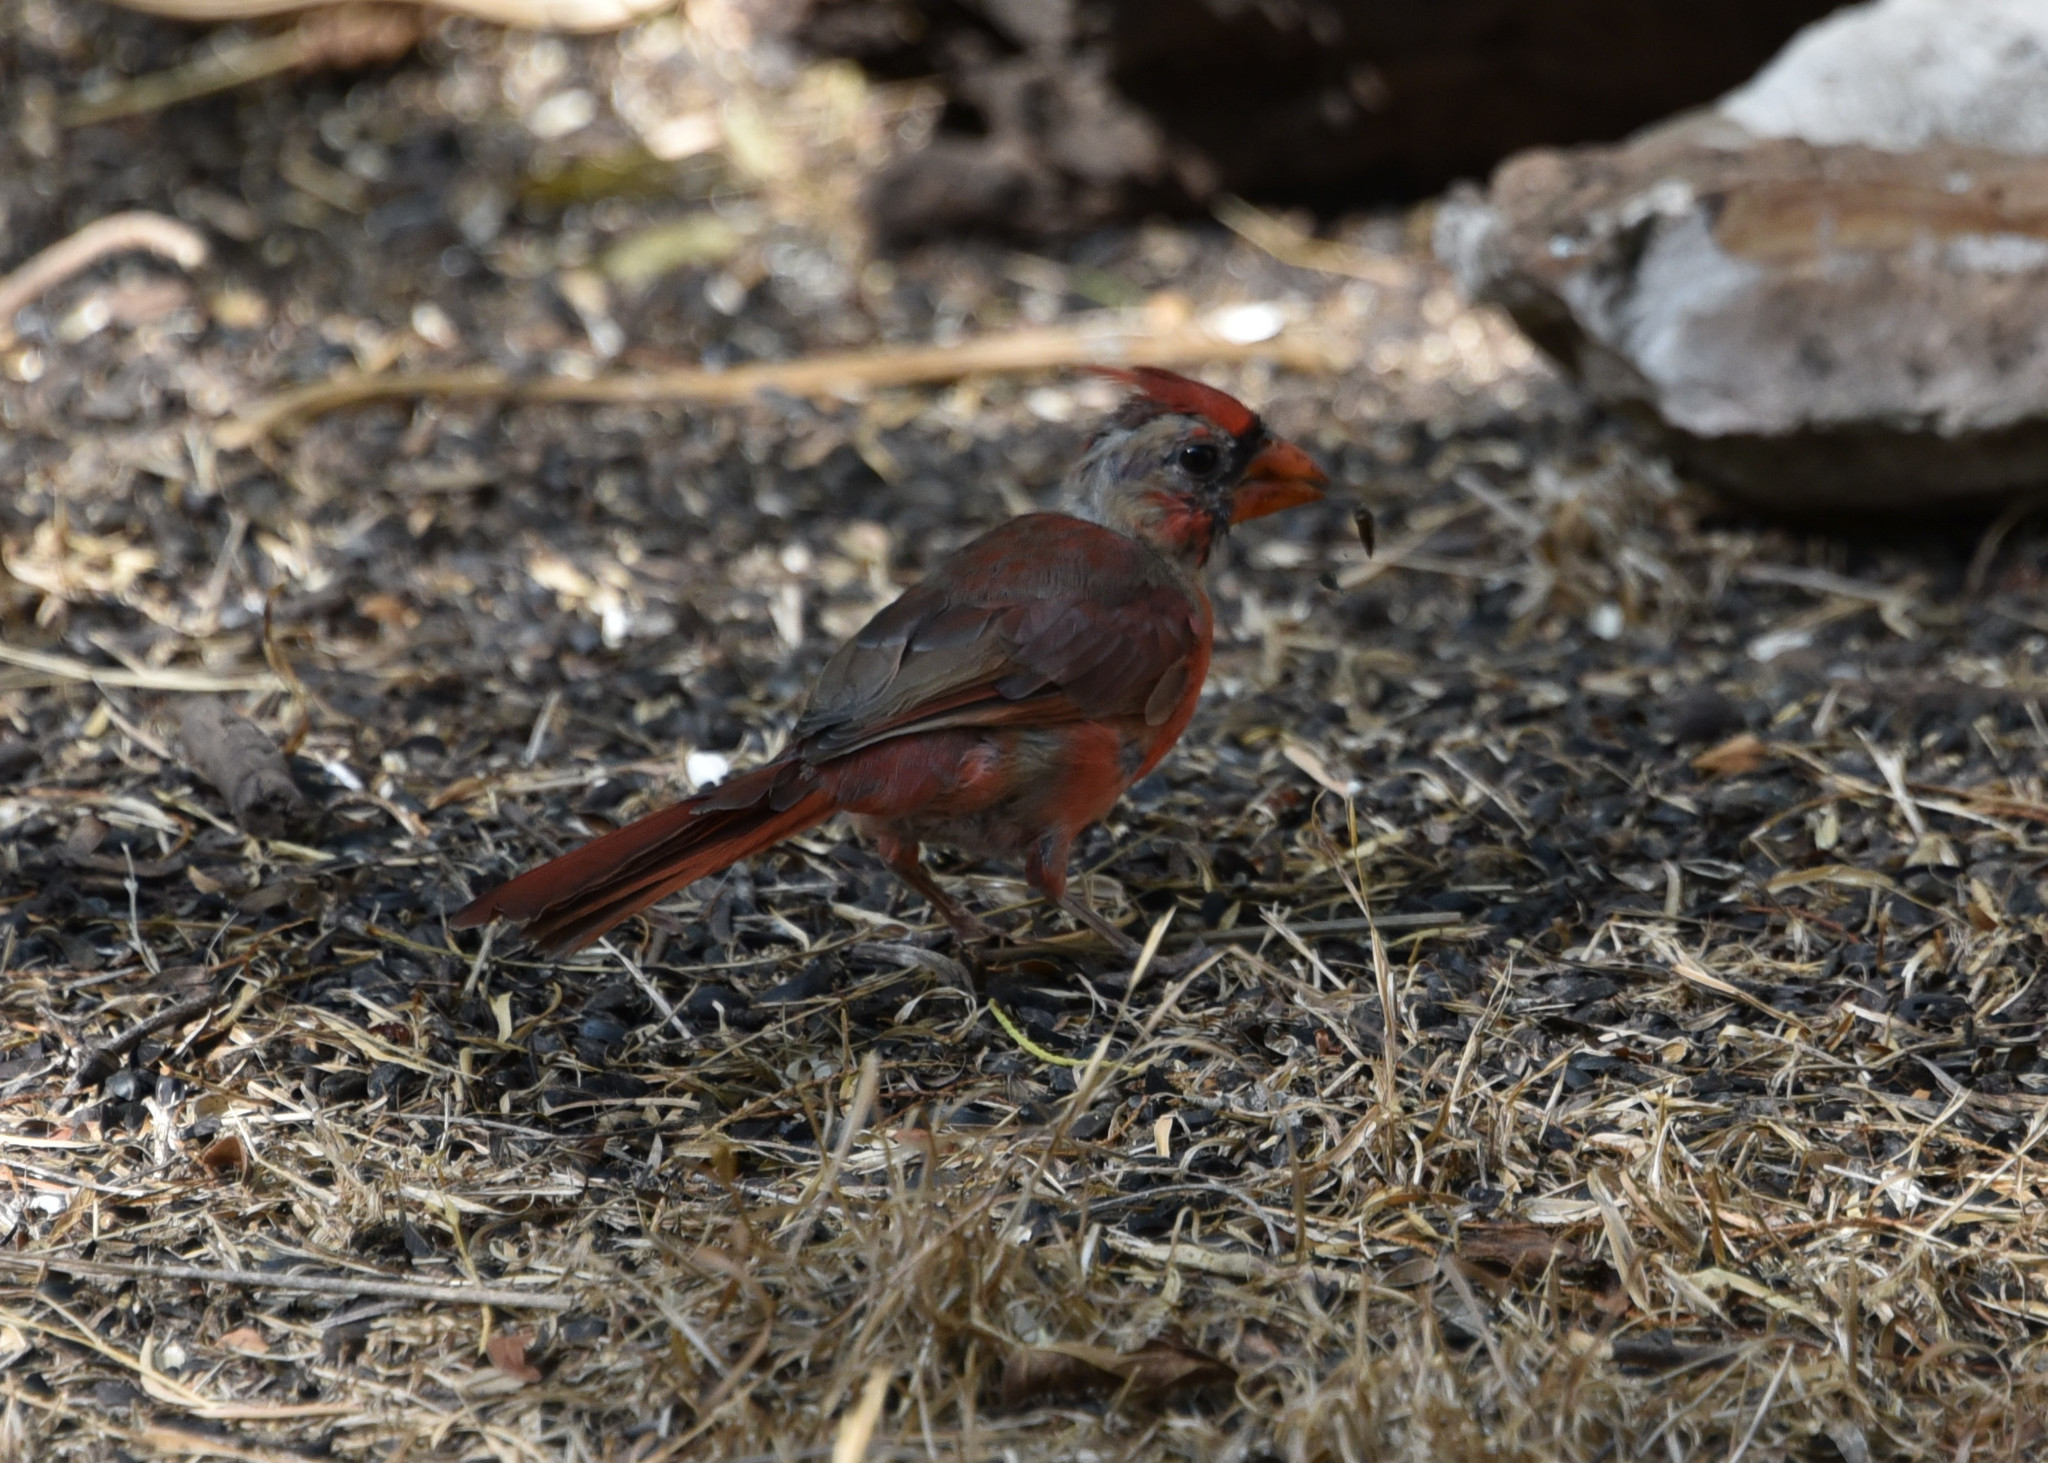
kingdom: Animalia
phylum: Chordata
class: Aves
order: Passeriformes
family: Cardinalidae
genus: Cardinalis
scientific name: Cardinalis cardinalis
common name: Northern cardinal
